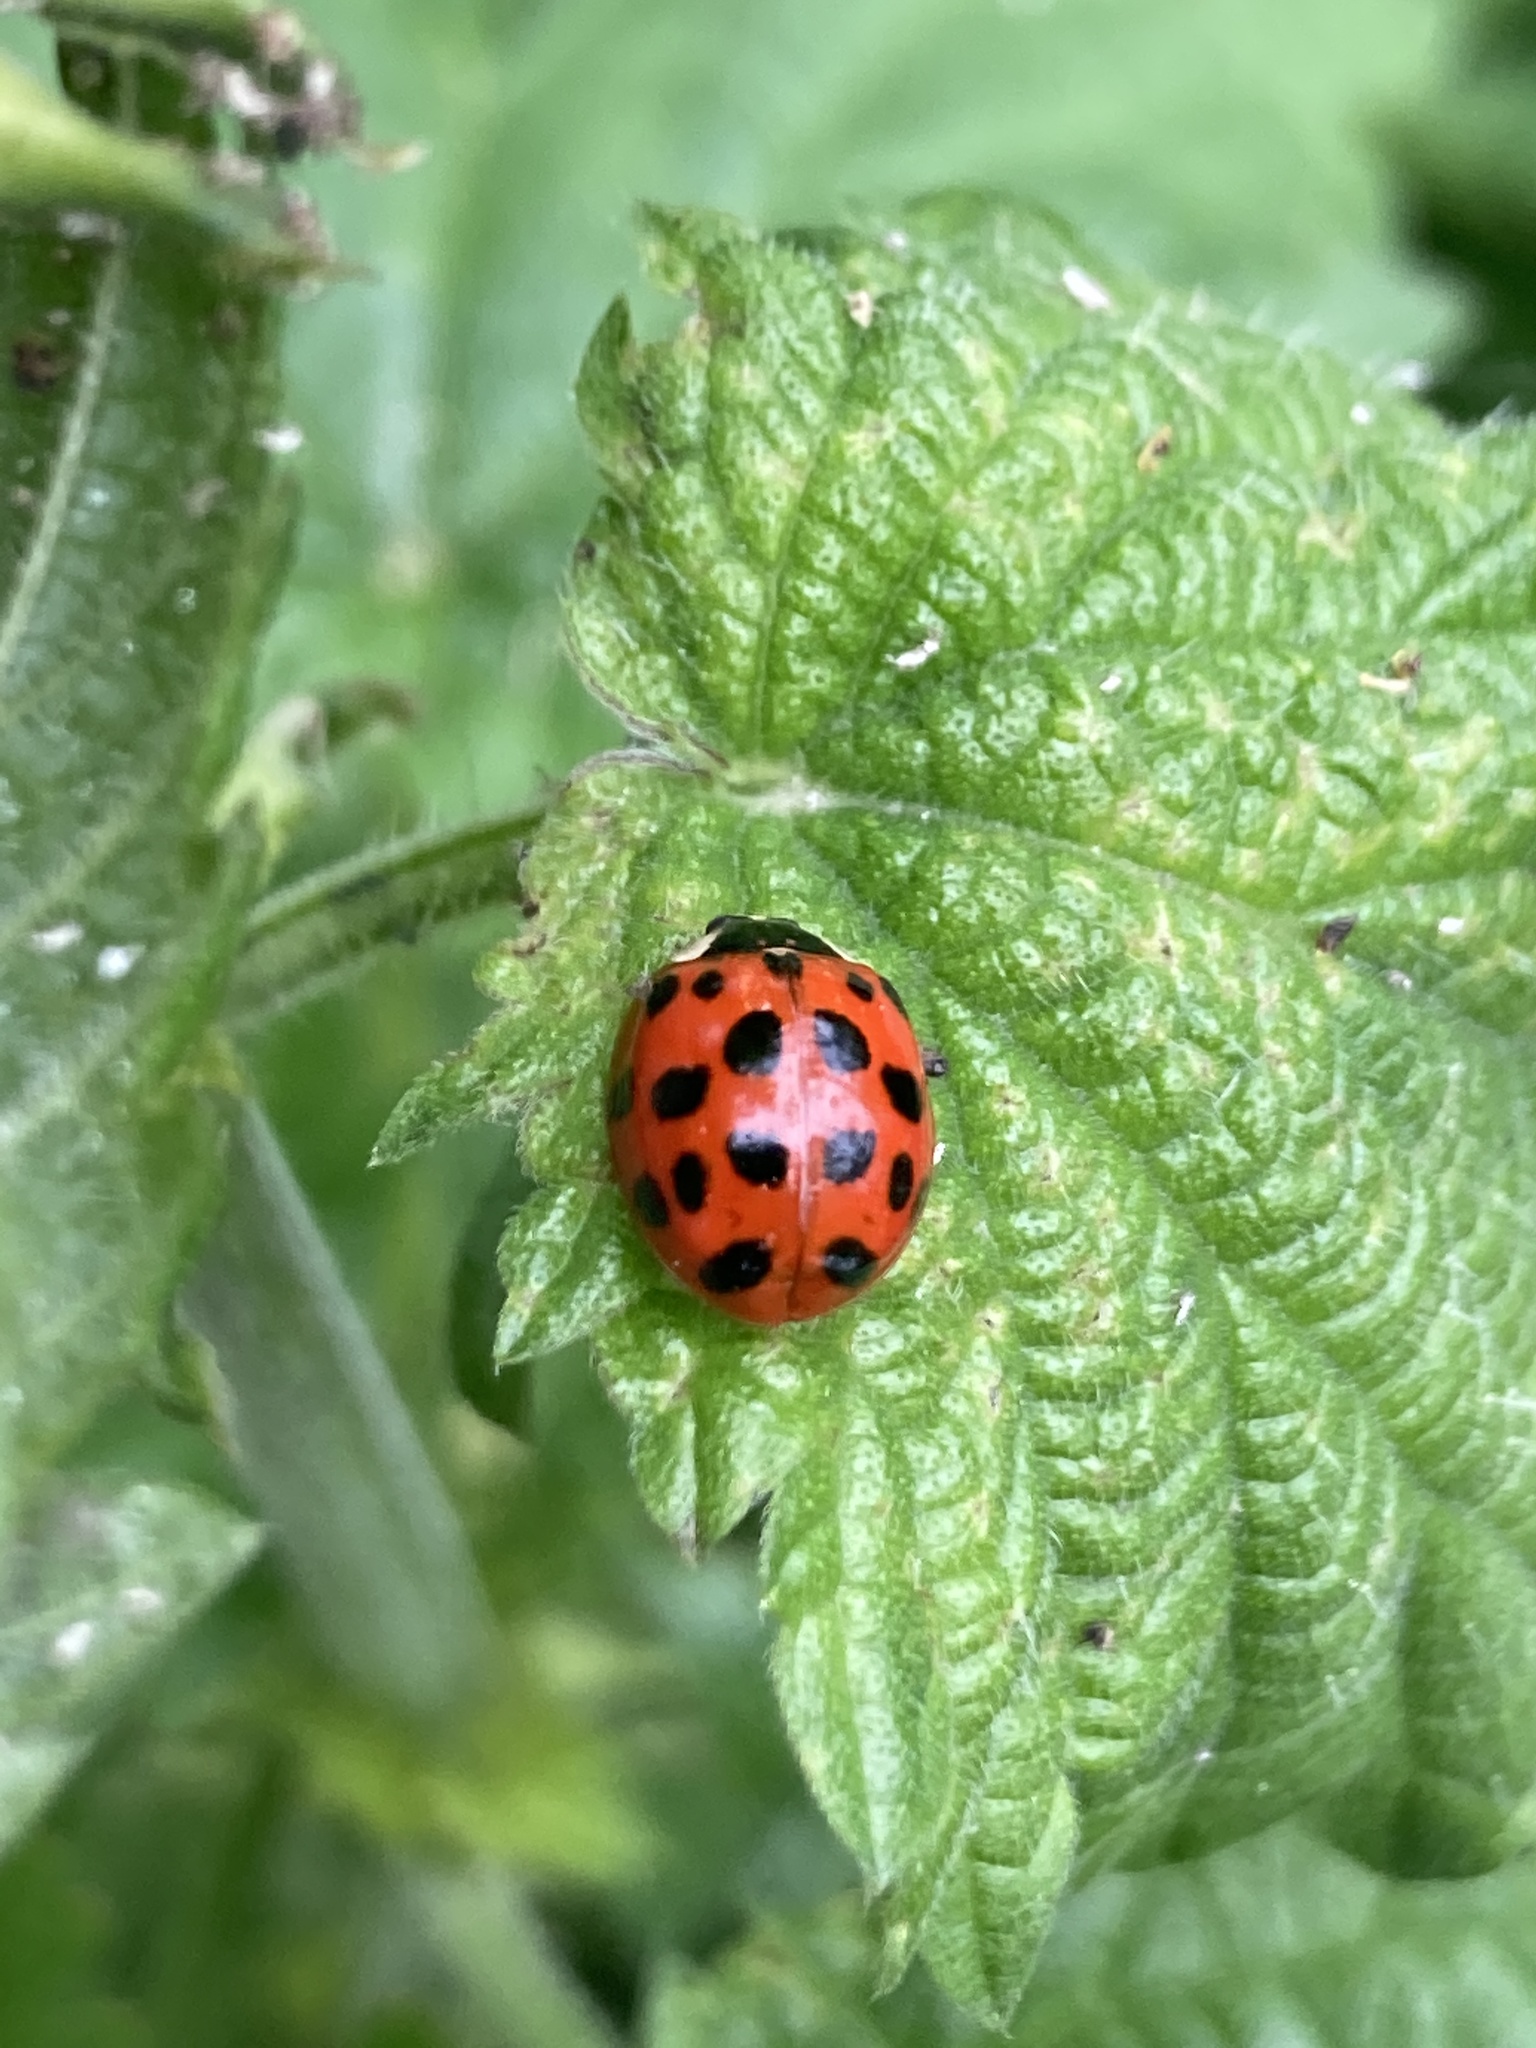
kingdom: Animalia
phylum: Arthropoda
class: Insecta
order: Coleoptera
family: Coccinellidae
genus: Harmonia
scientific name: Harmonia axyridis
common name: Harlequin ladybird
